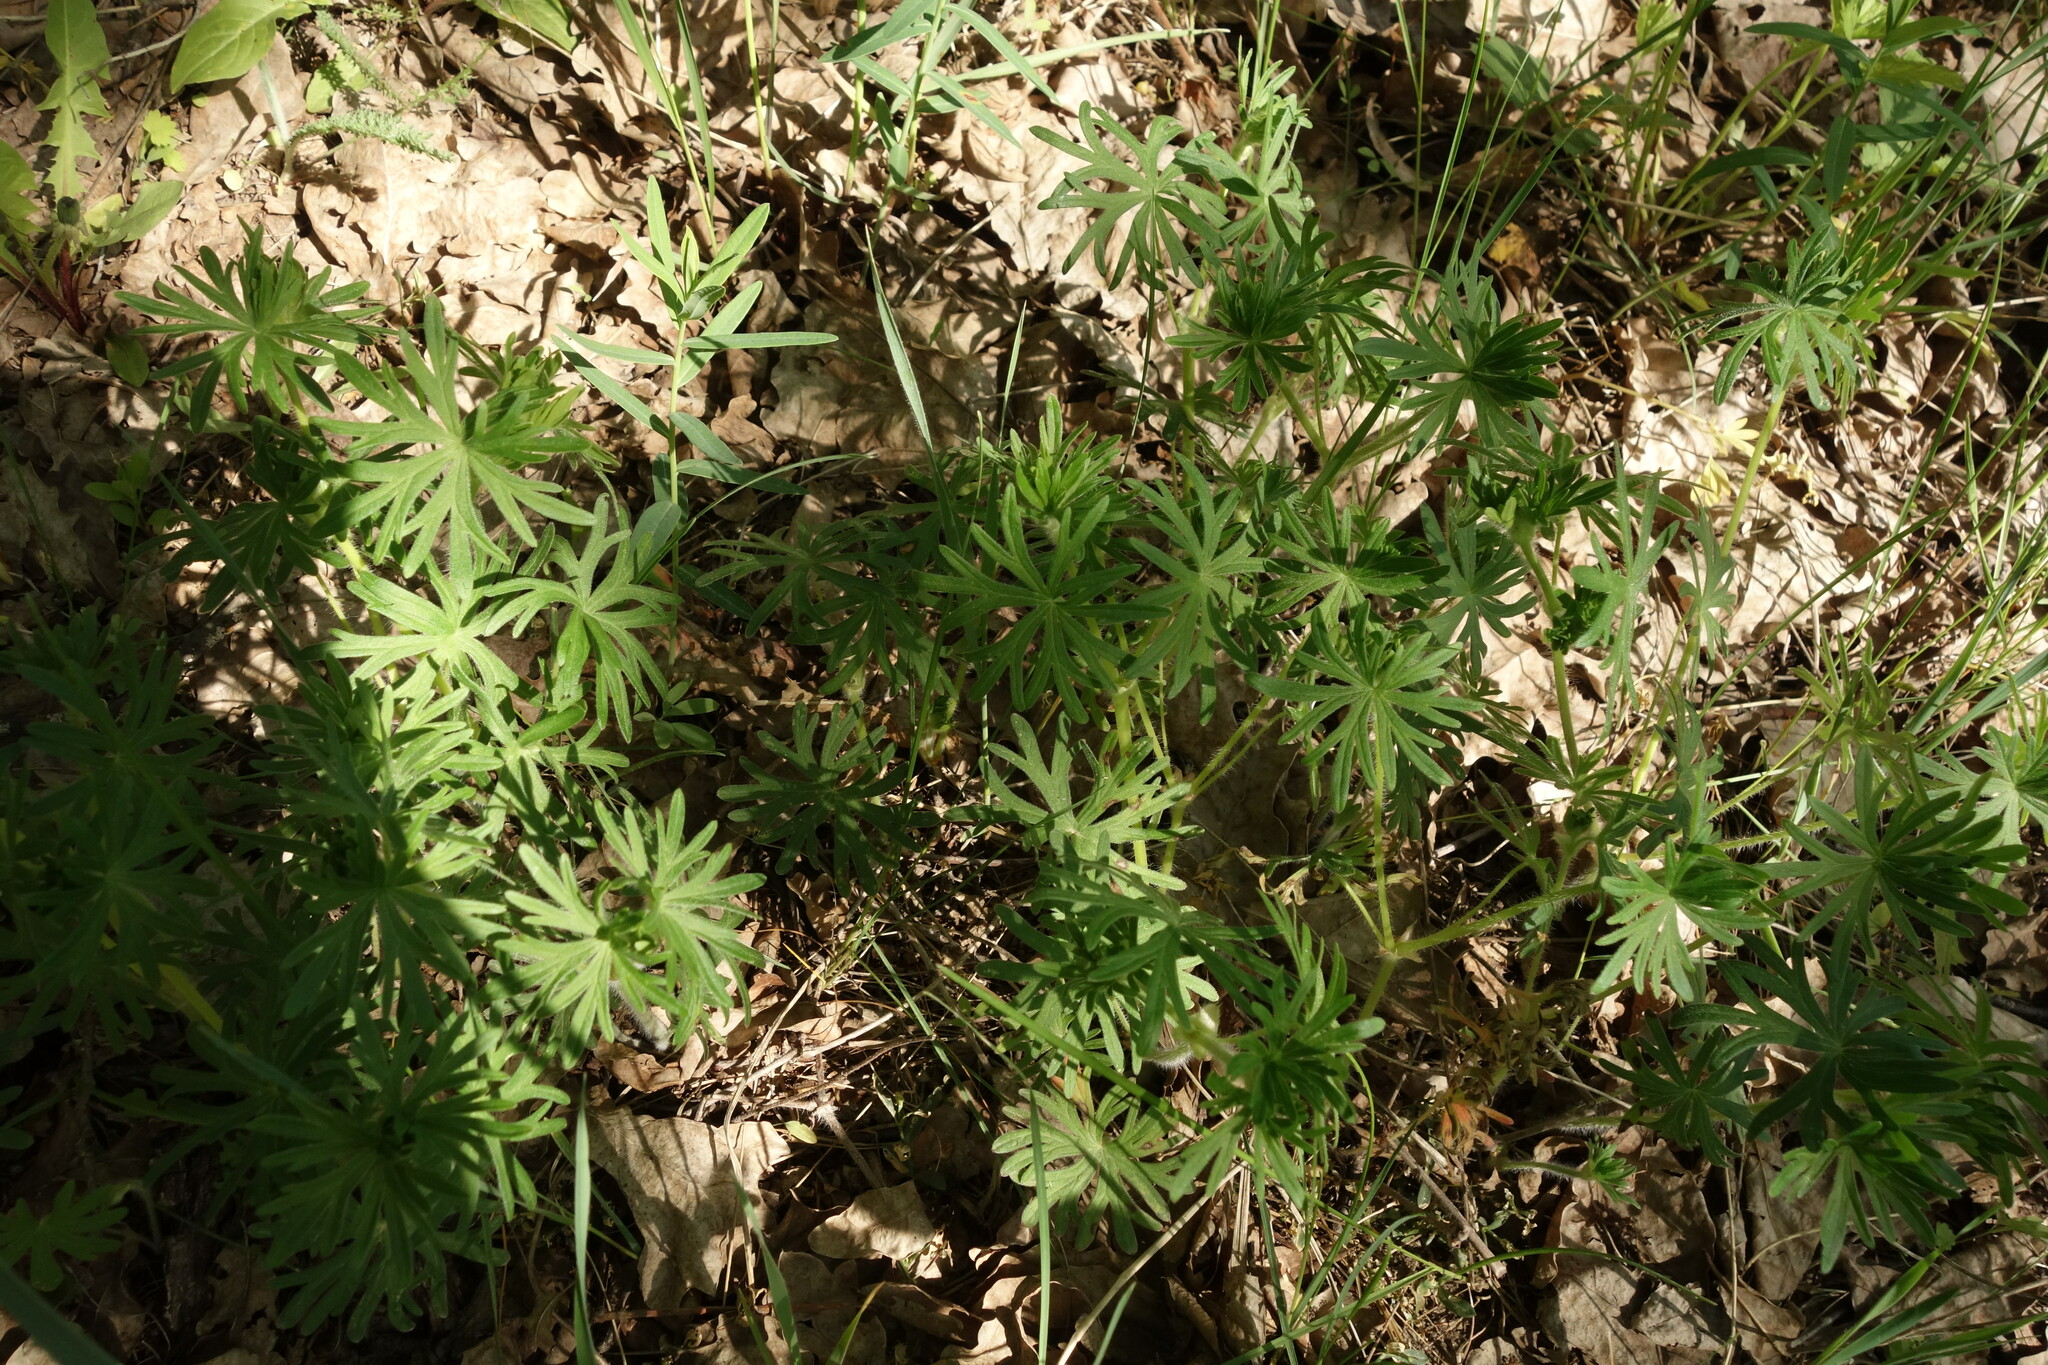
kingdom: Plantae
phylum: Tracheophyta
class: Magnoliopsida
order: Geraniales
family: Geraniaceae
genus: Geranium
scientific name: Geranium sanguineum
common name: Bloody crane's-bill
